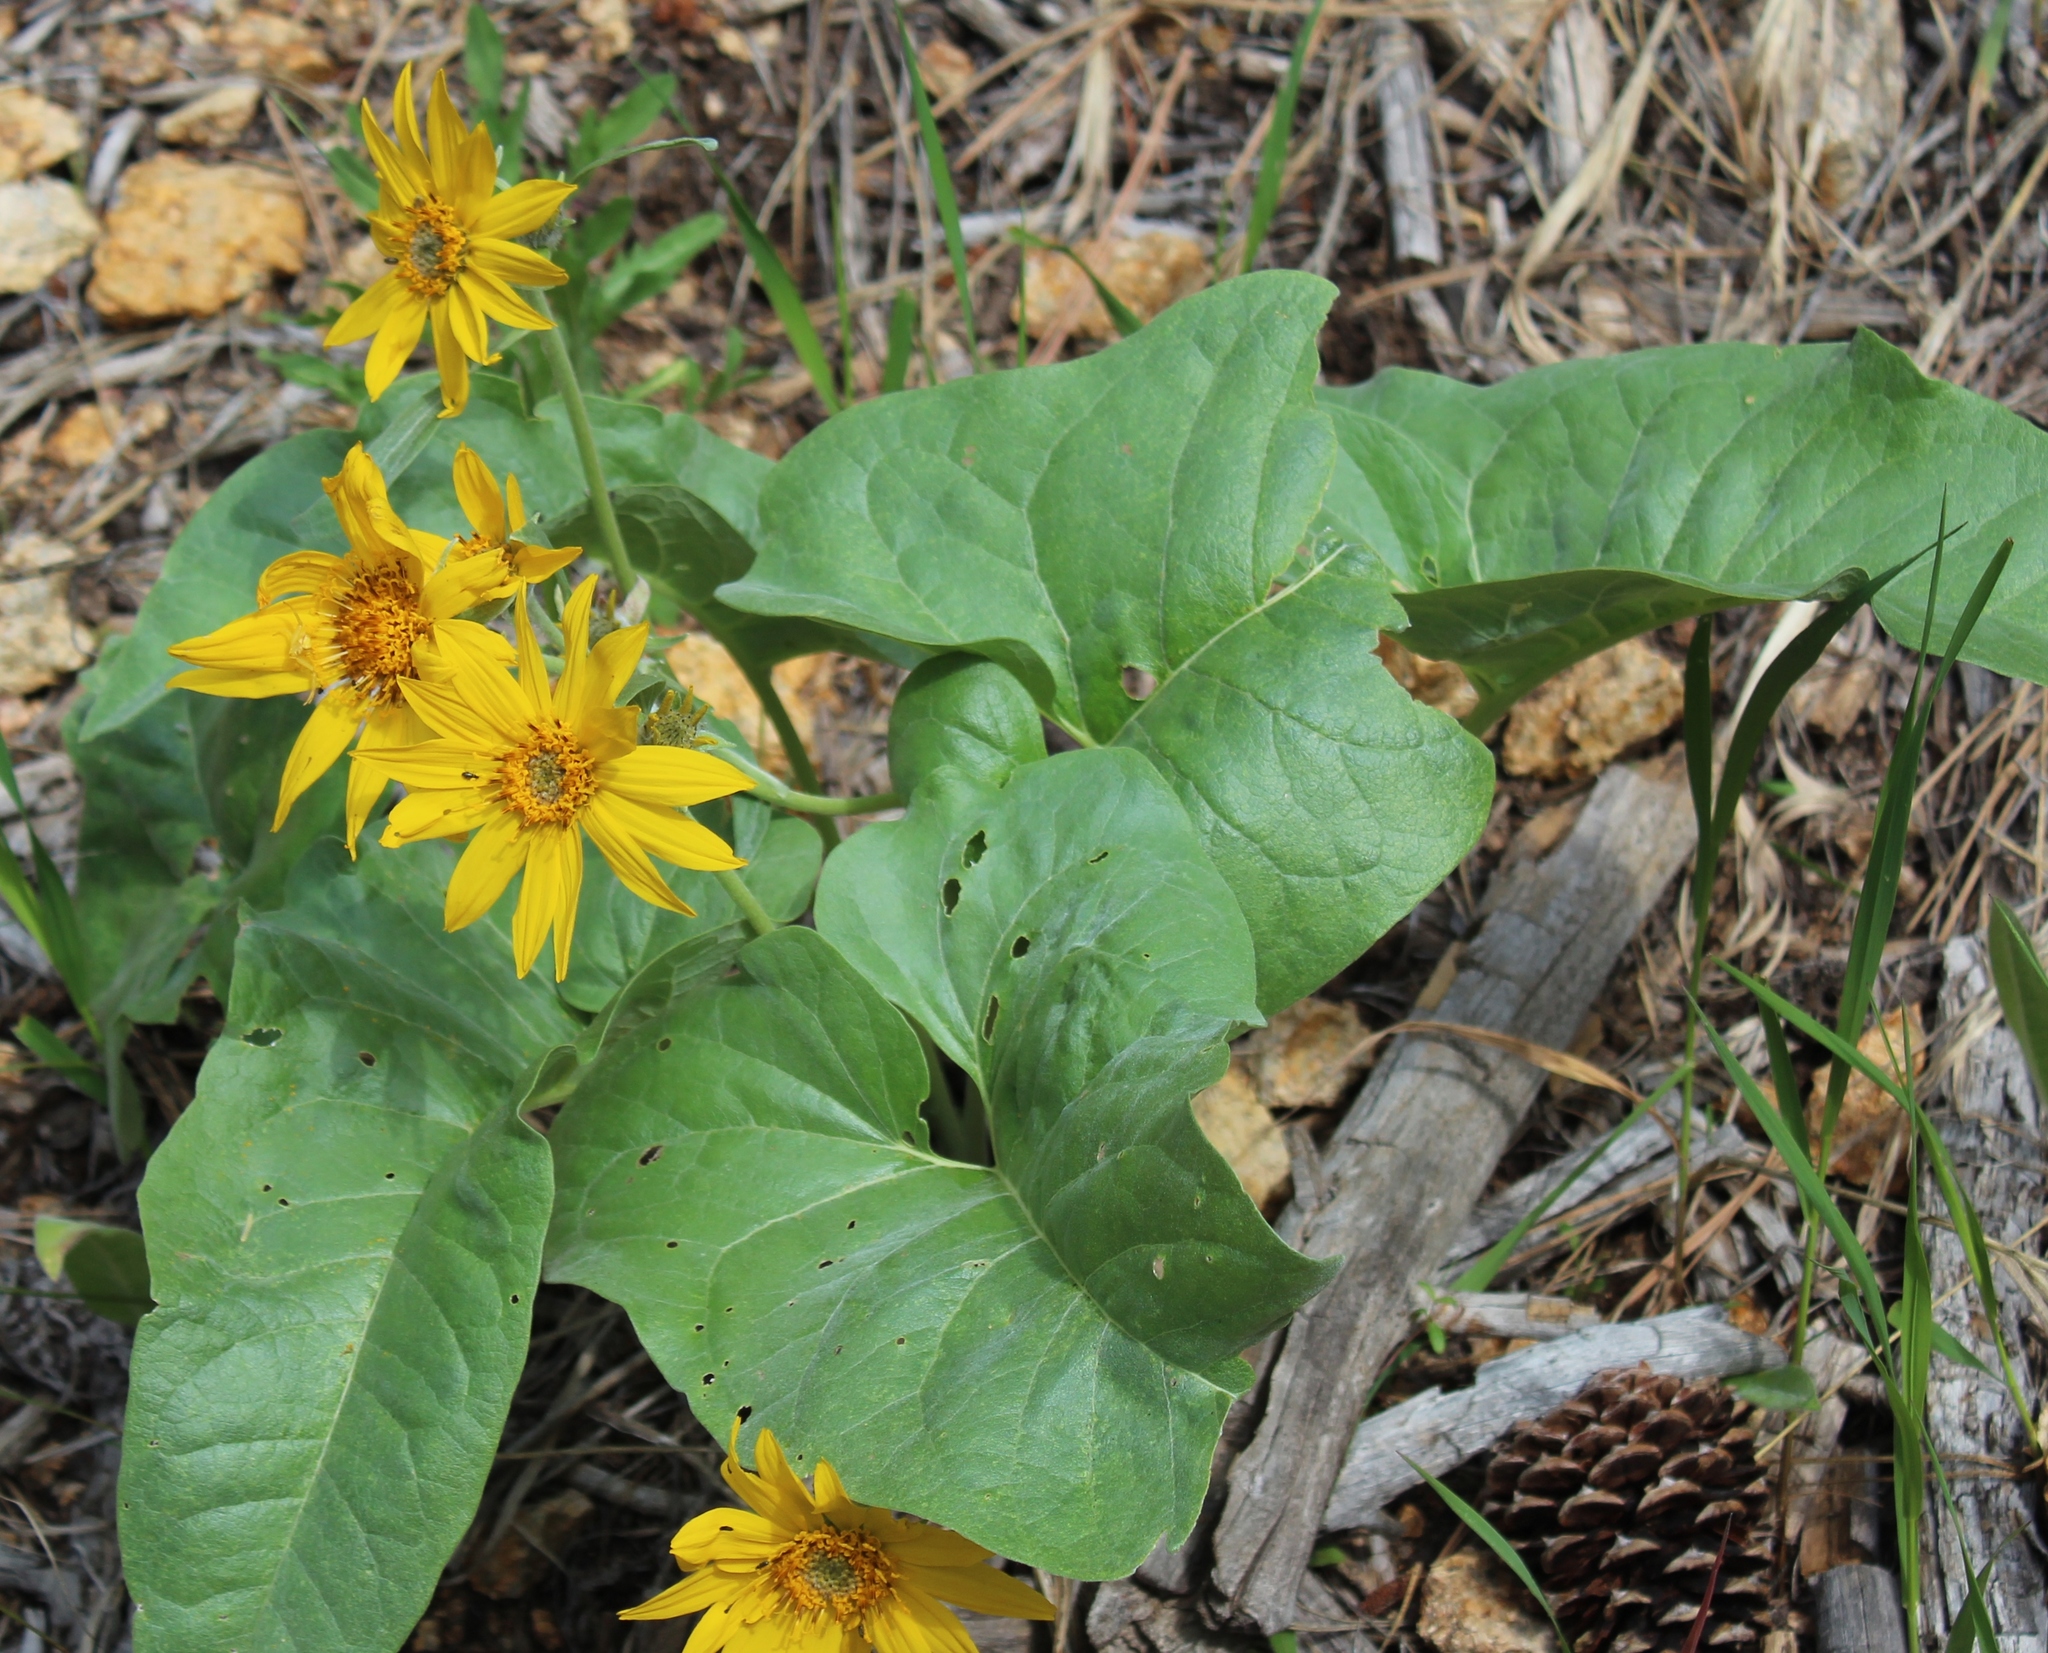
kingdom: Plantae
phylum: Tracheophyta
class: Magnoliopsida
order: Asterales
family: Asteraceae
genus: Wyethia
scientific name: Wyethia sagittata
